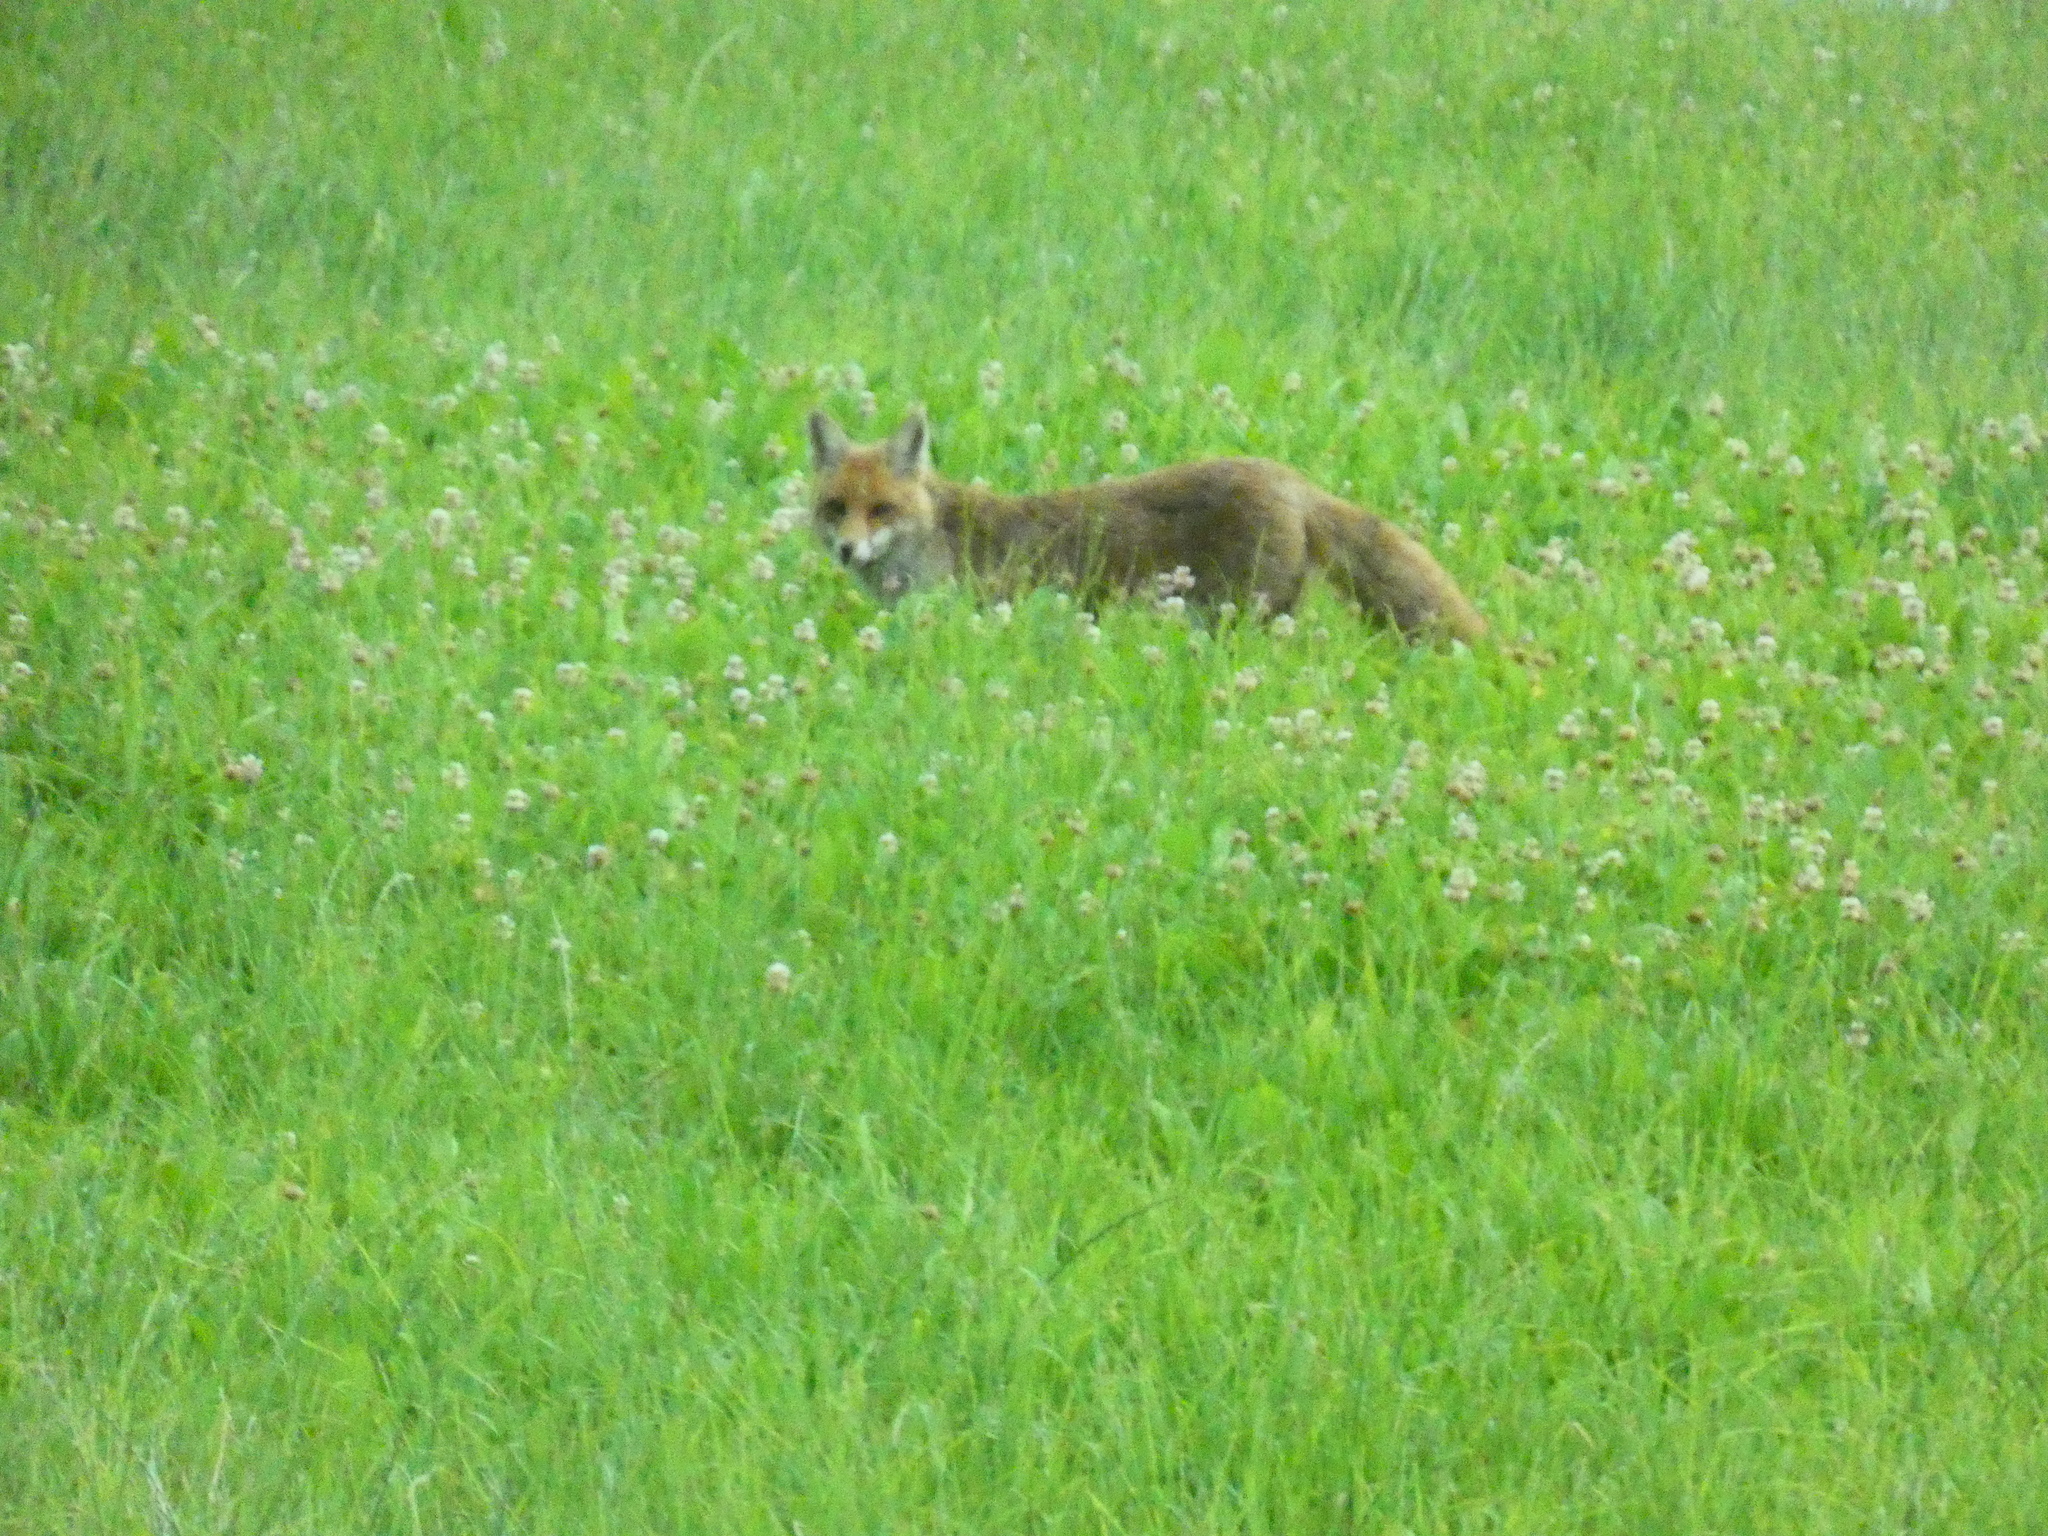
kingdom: Animalia
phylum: Chordata
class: Mammalia
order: Carnivora
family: Canidae
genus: Vulpes
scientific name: Vulpes vulpes
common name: Red fox
